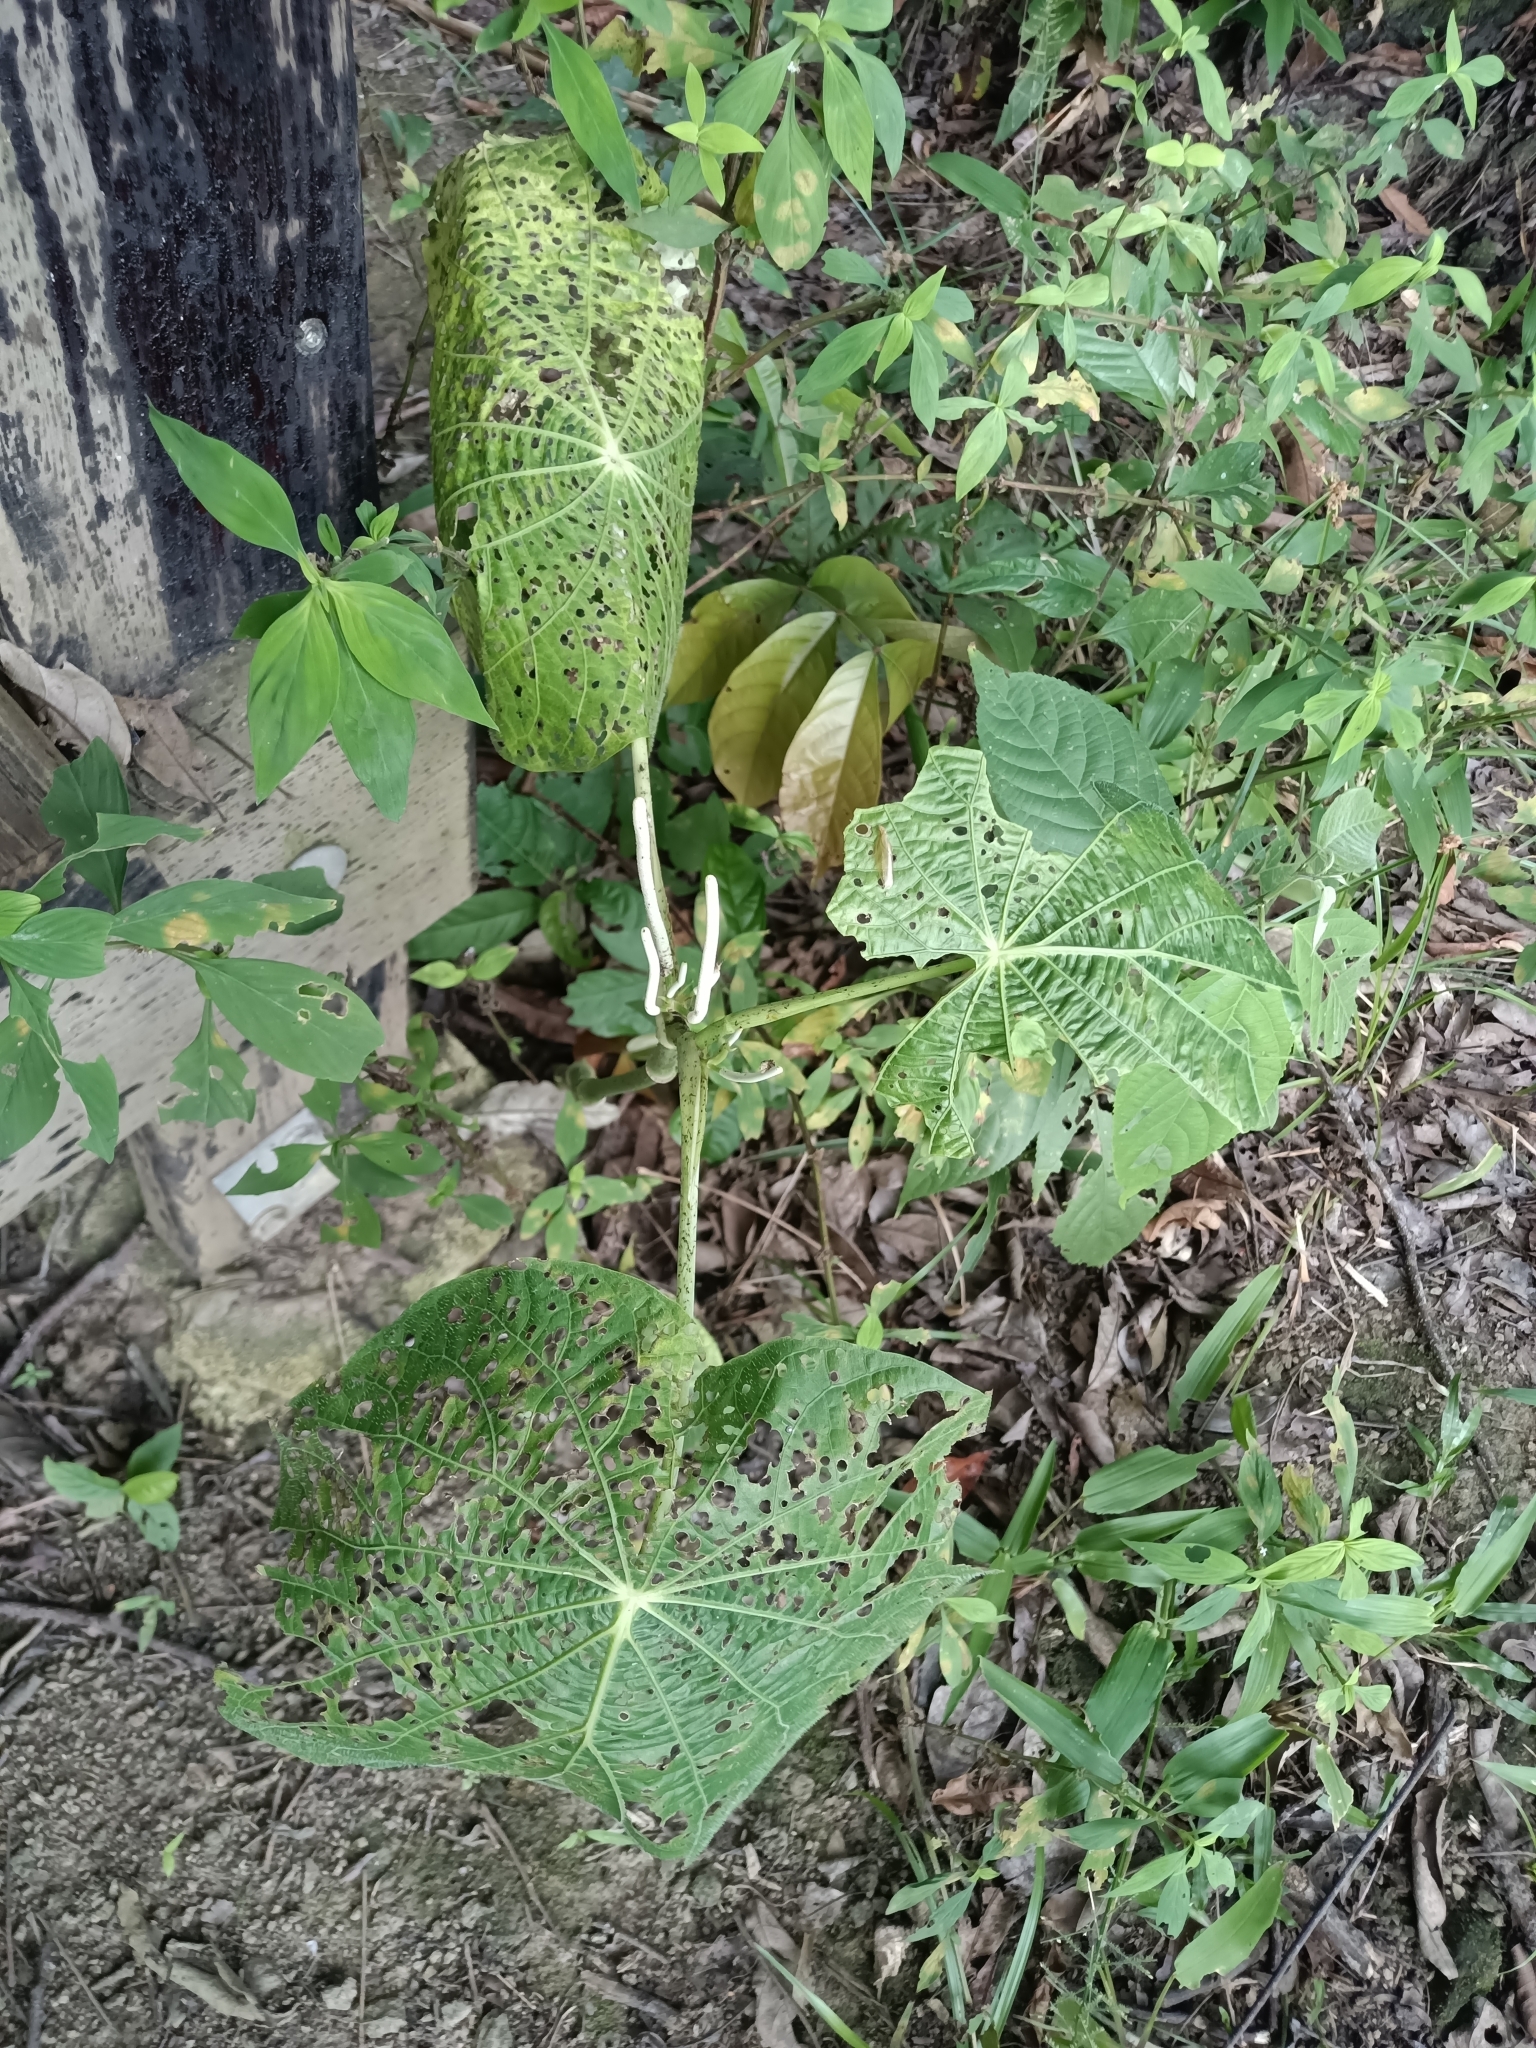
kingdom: Plantae
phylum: Tracheophyta
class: Magnoliopsida
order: Piperales
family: Piperaceae
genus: Piper
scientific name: Piper peltatum
